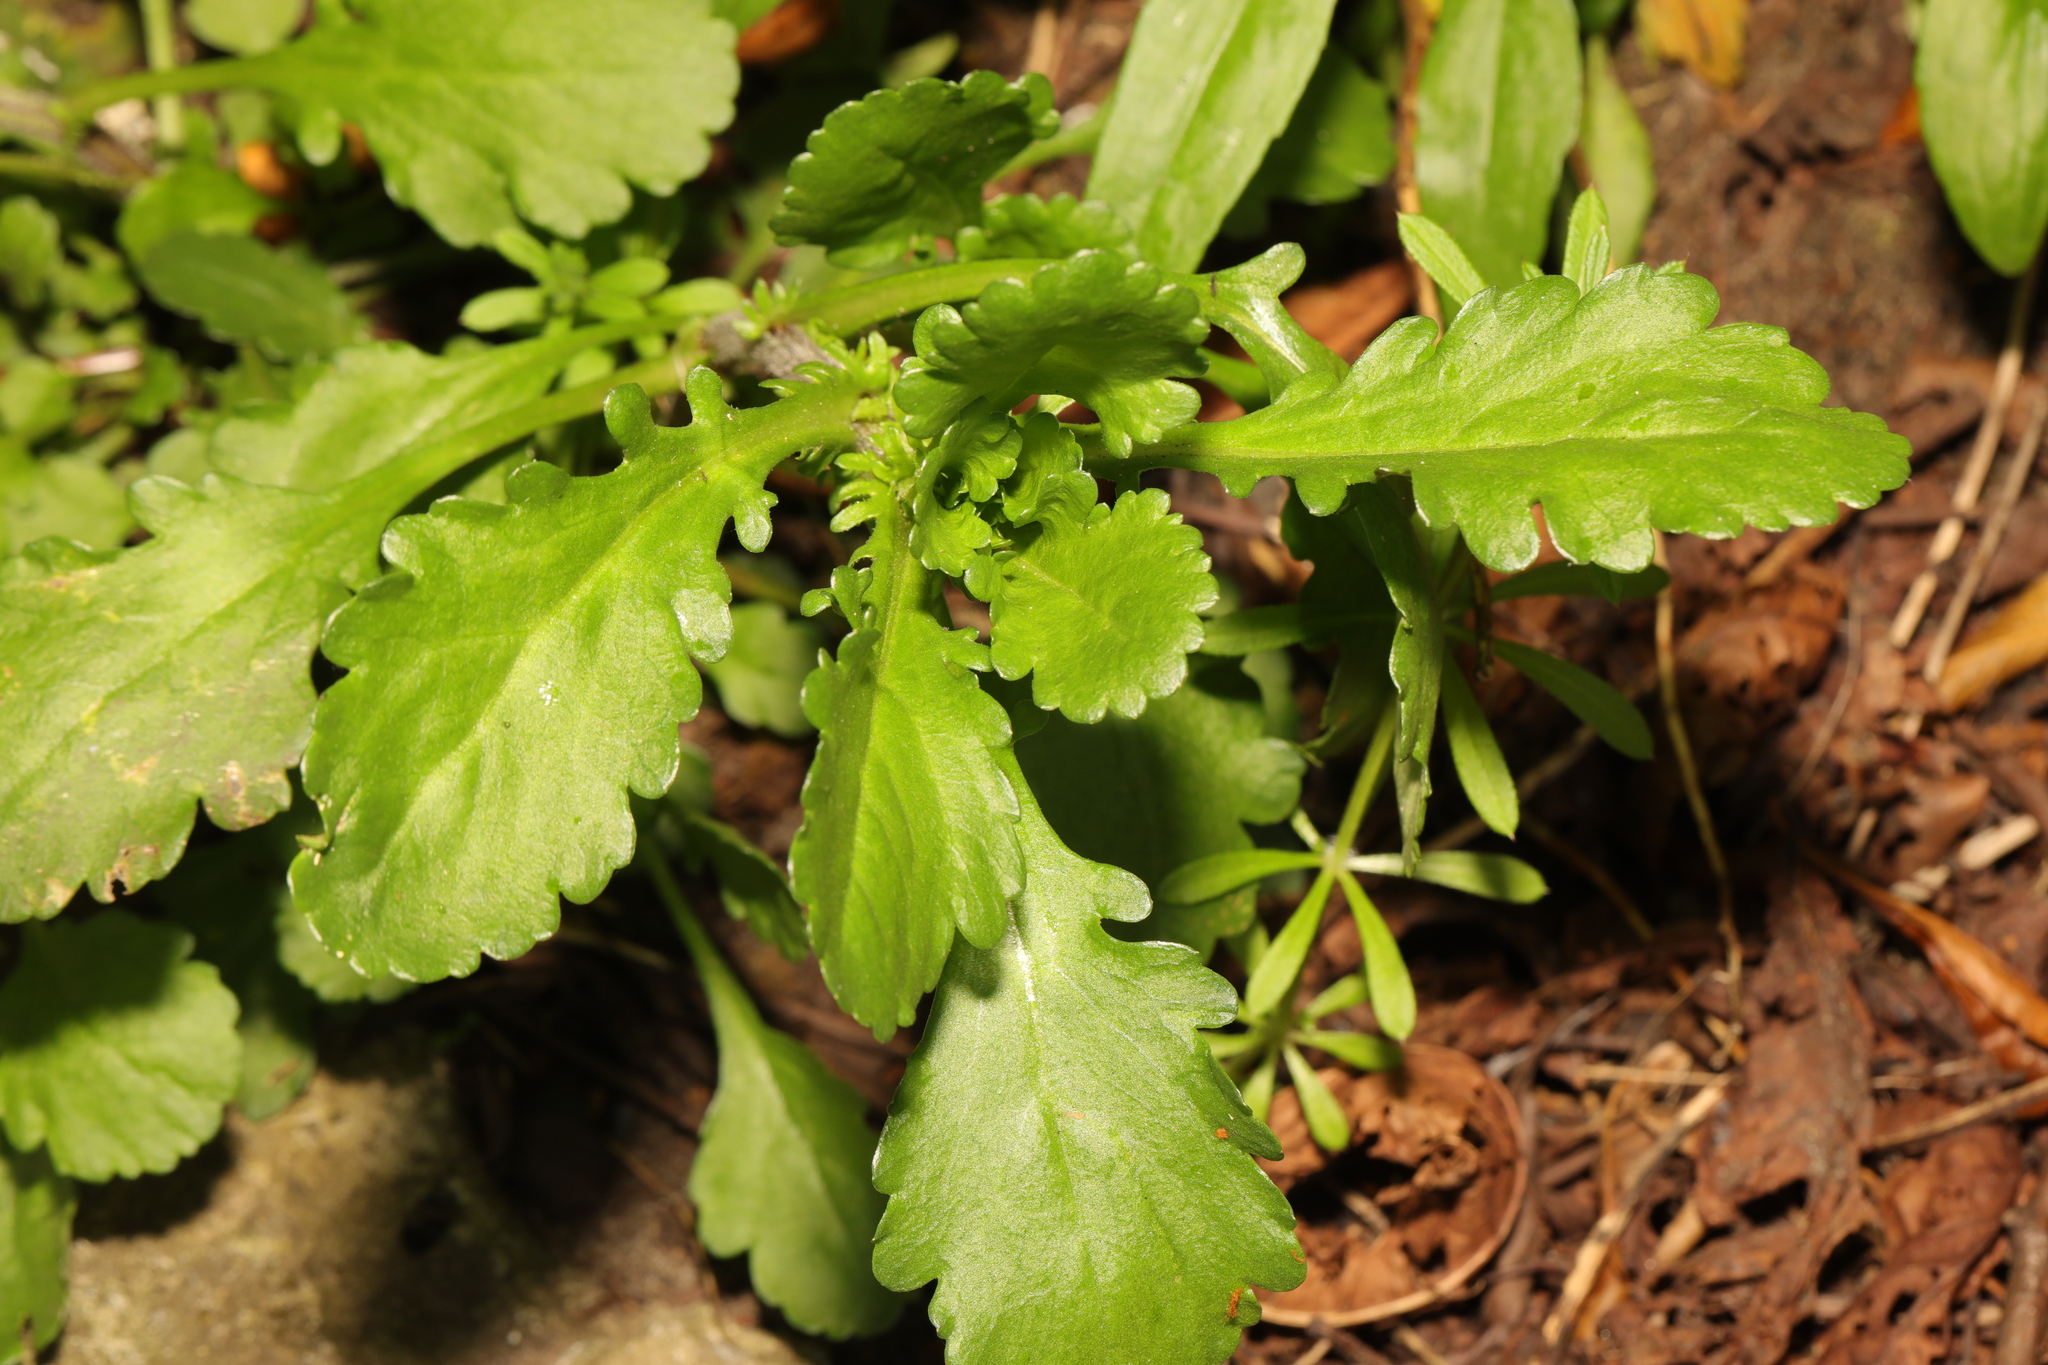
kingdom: Plantae
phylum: Tracheophyta
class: Magnoliopsida
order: Asterales
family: Asteraceae
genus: Leucanthemum
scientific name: Leucanthemum vulgare
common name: Oxeye daisy
